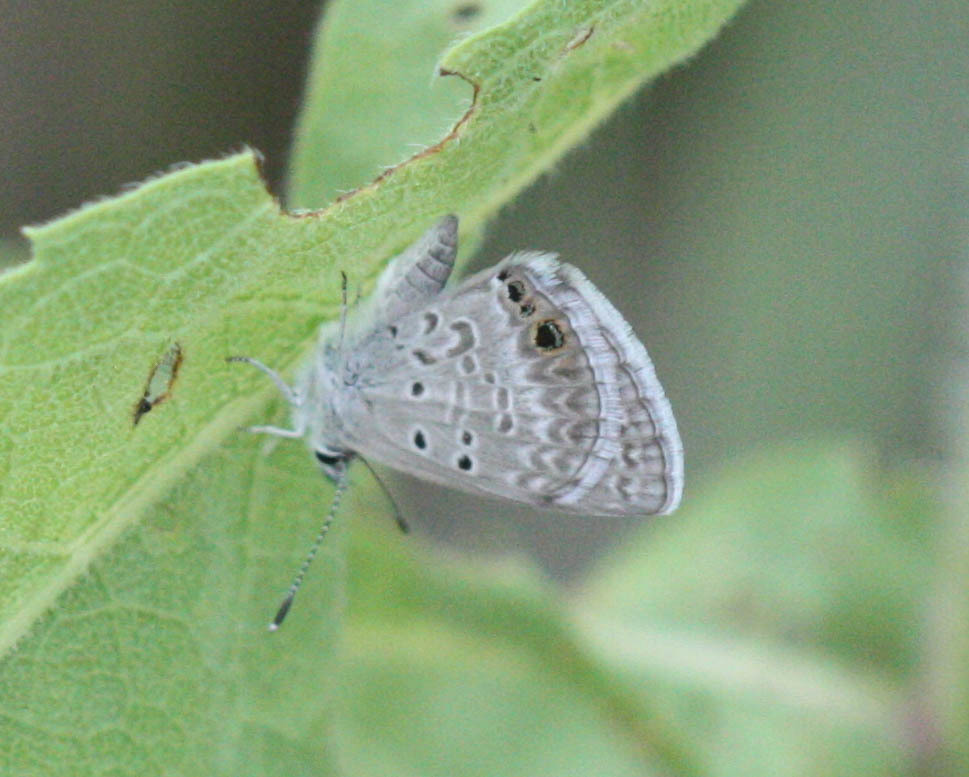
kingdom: Animalia
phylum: Arthropoda
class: Insecta
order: Lepidoptera
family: Lycaenidae
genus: Echinargus
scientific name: Echinargus isola
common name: Reakirt's blue
